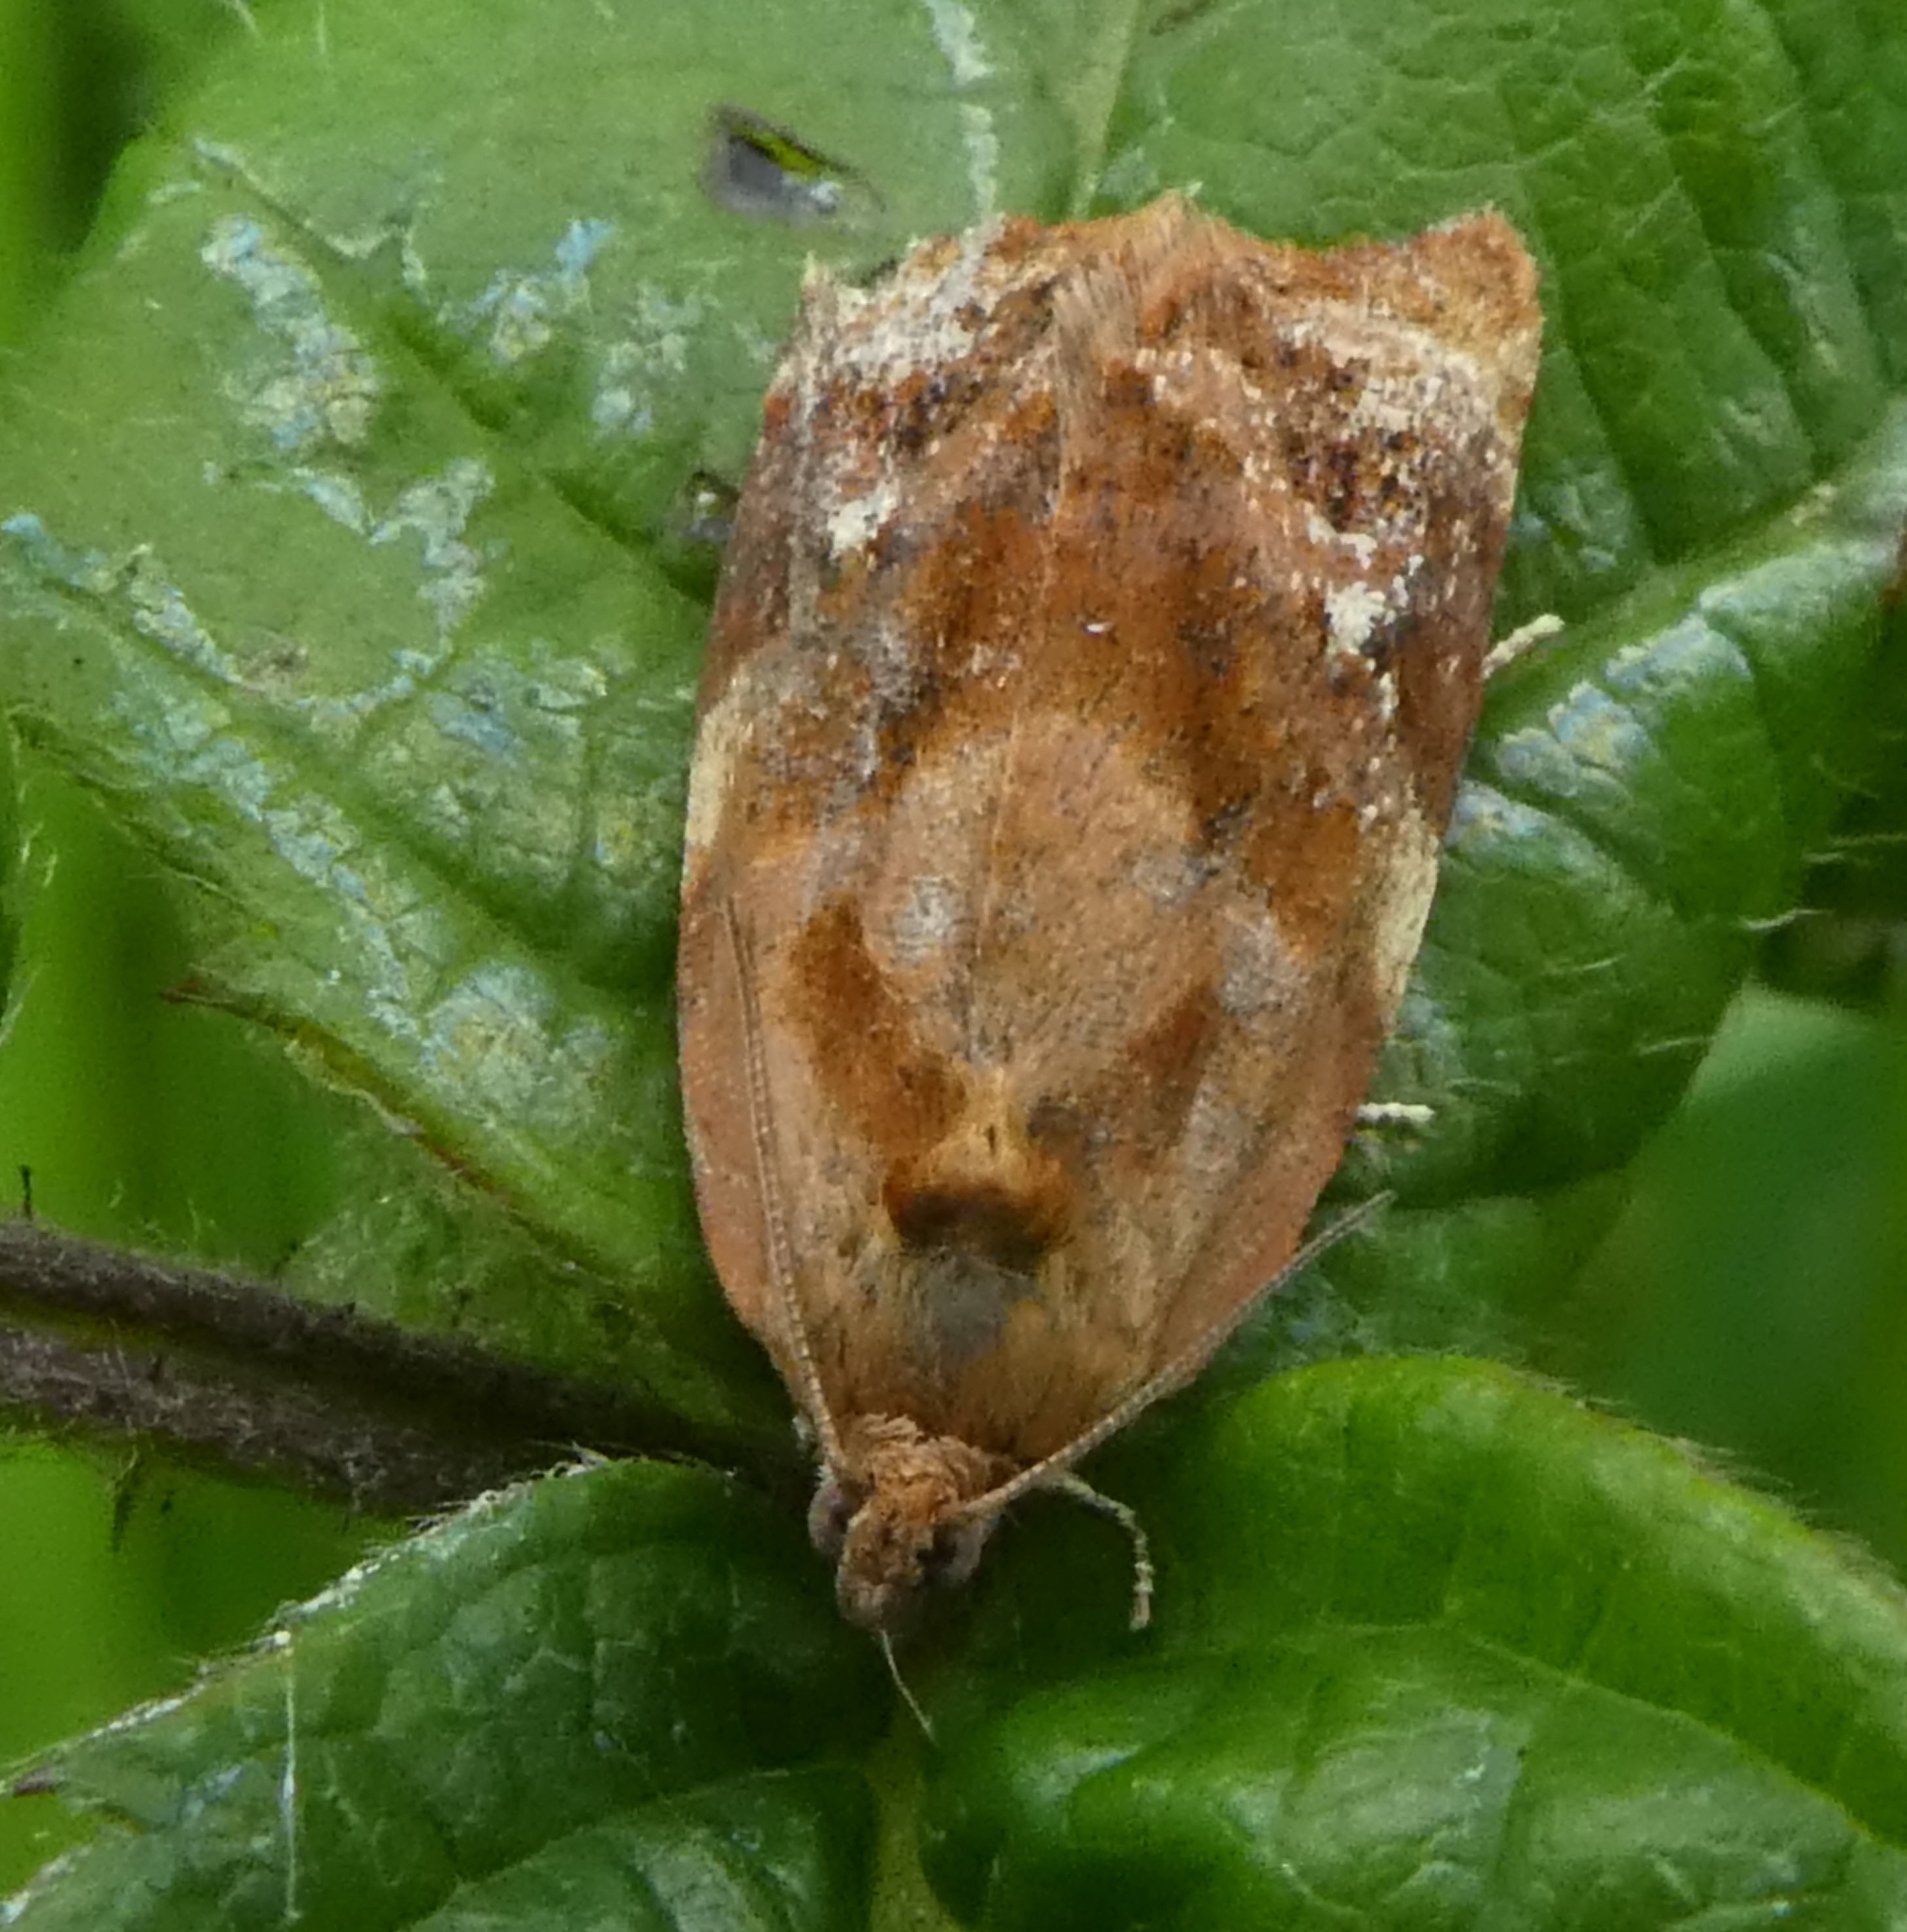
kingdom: Animalia
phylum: Arthropoda
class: Insecta
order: Lepidoptera
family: Tortricidae
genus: Ditula
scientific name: Ditula angustiorana
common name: Red-barred tortrix
